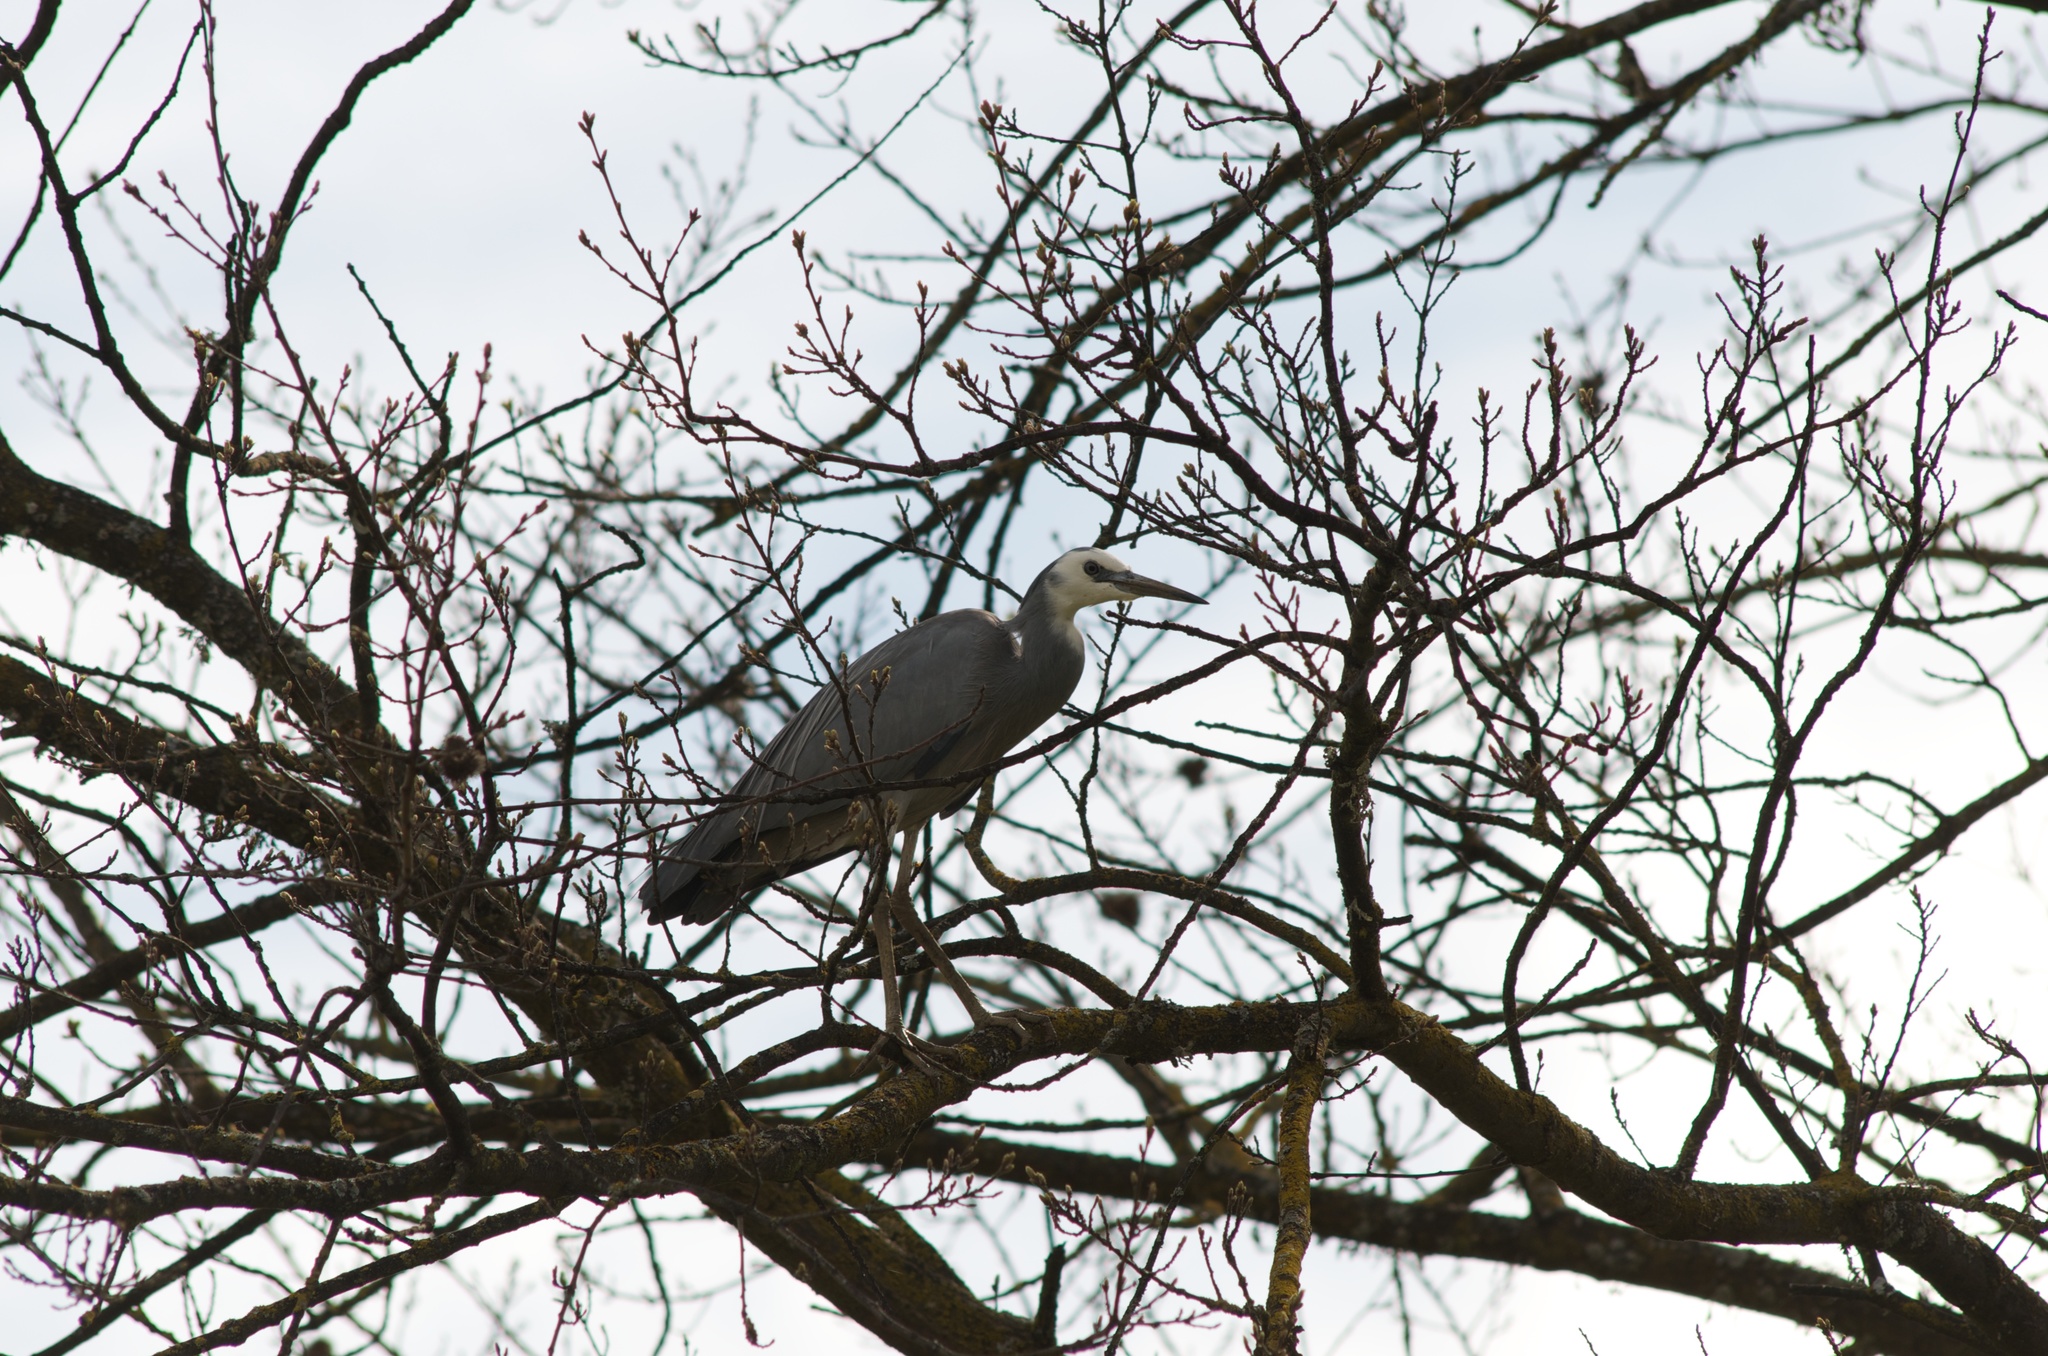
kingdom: Animalia
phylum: Chordata
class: Aves
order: Pelecaniformes
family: Ardeidae
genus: Egretta
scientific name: Egretta novaehollandiae
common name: White-faced heron
